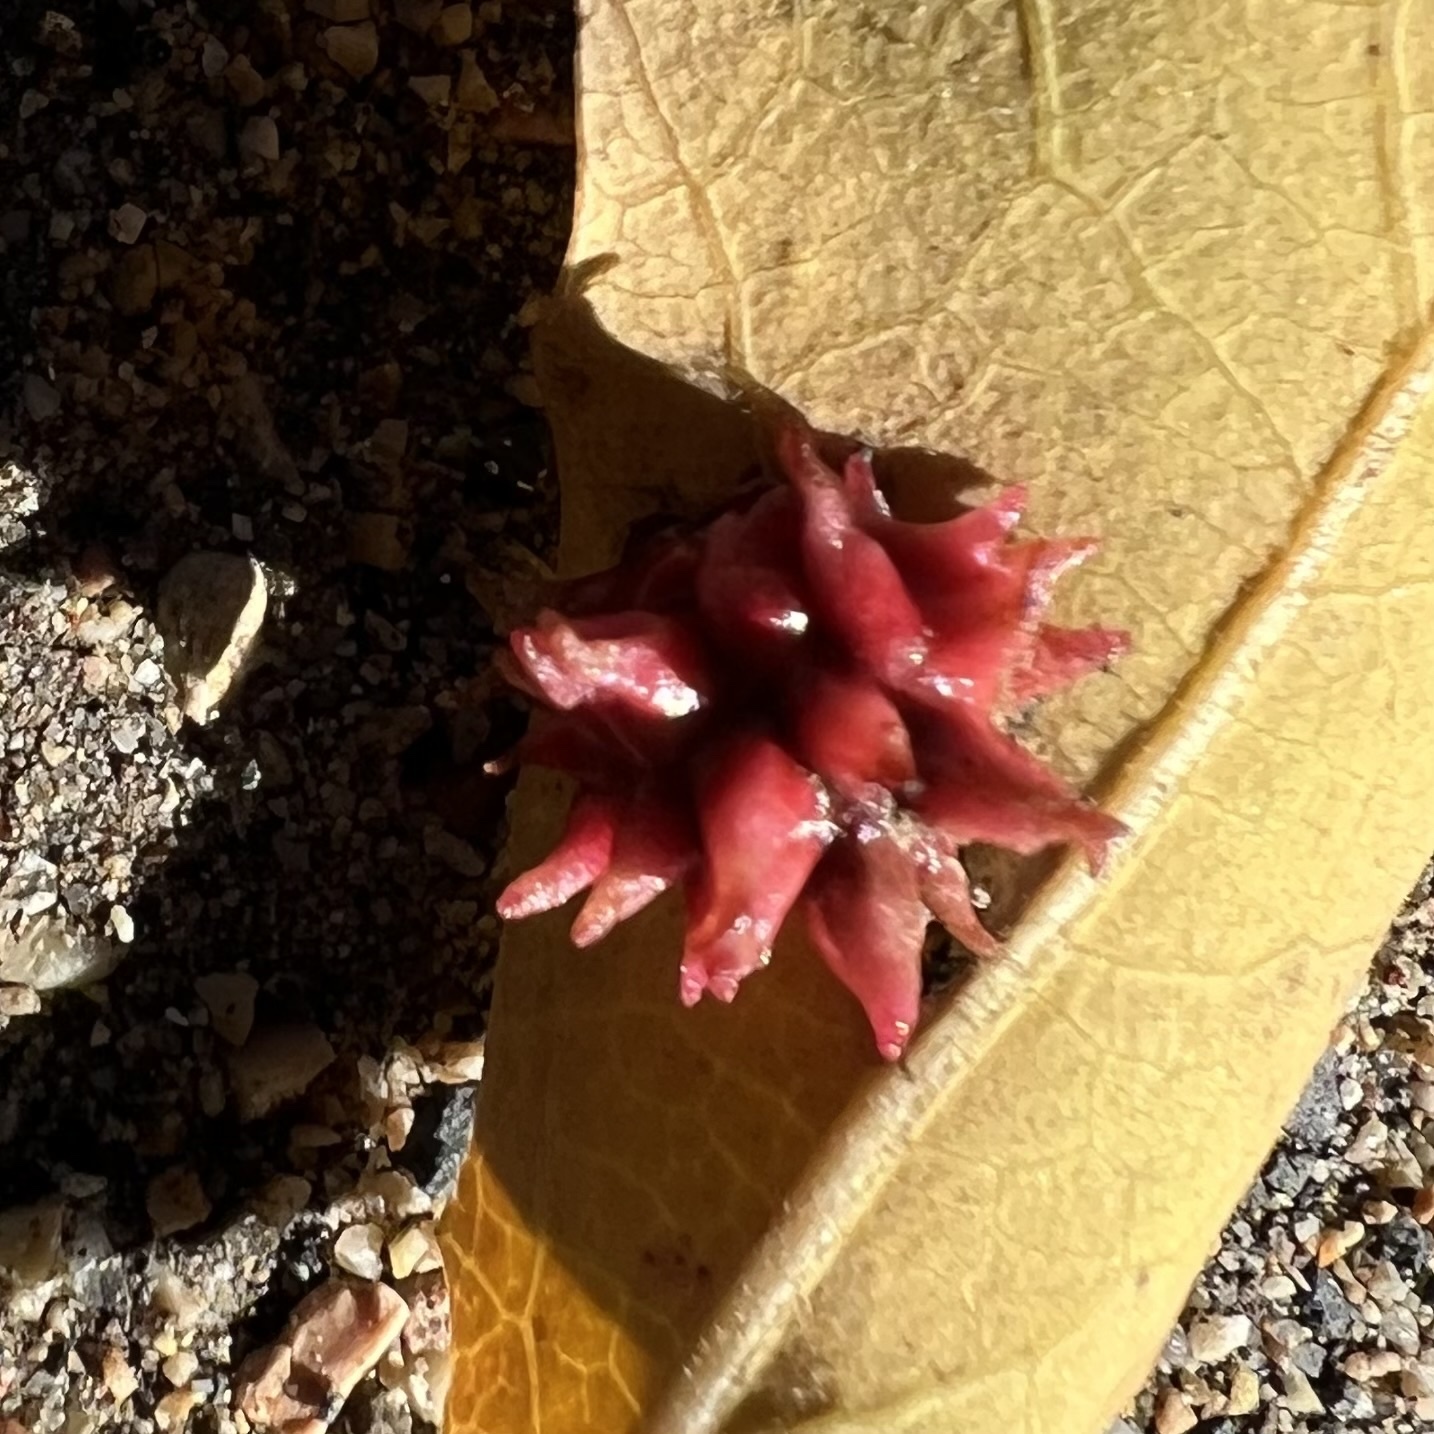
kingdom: Animalia
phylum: Arthropoda
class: Insecta
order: Hymenoptera
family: Cynipidae
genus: Cynips
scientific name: Cynips
